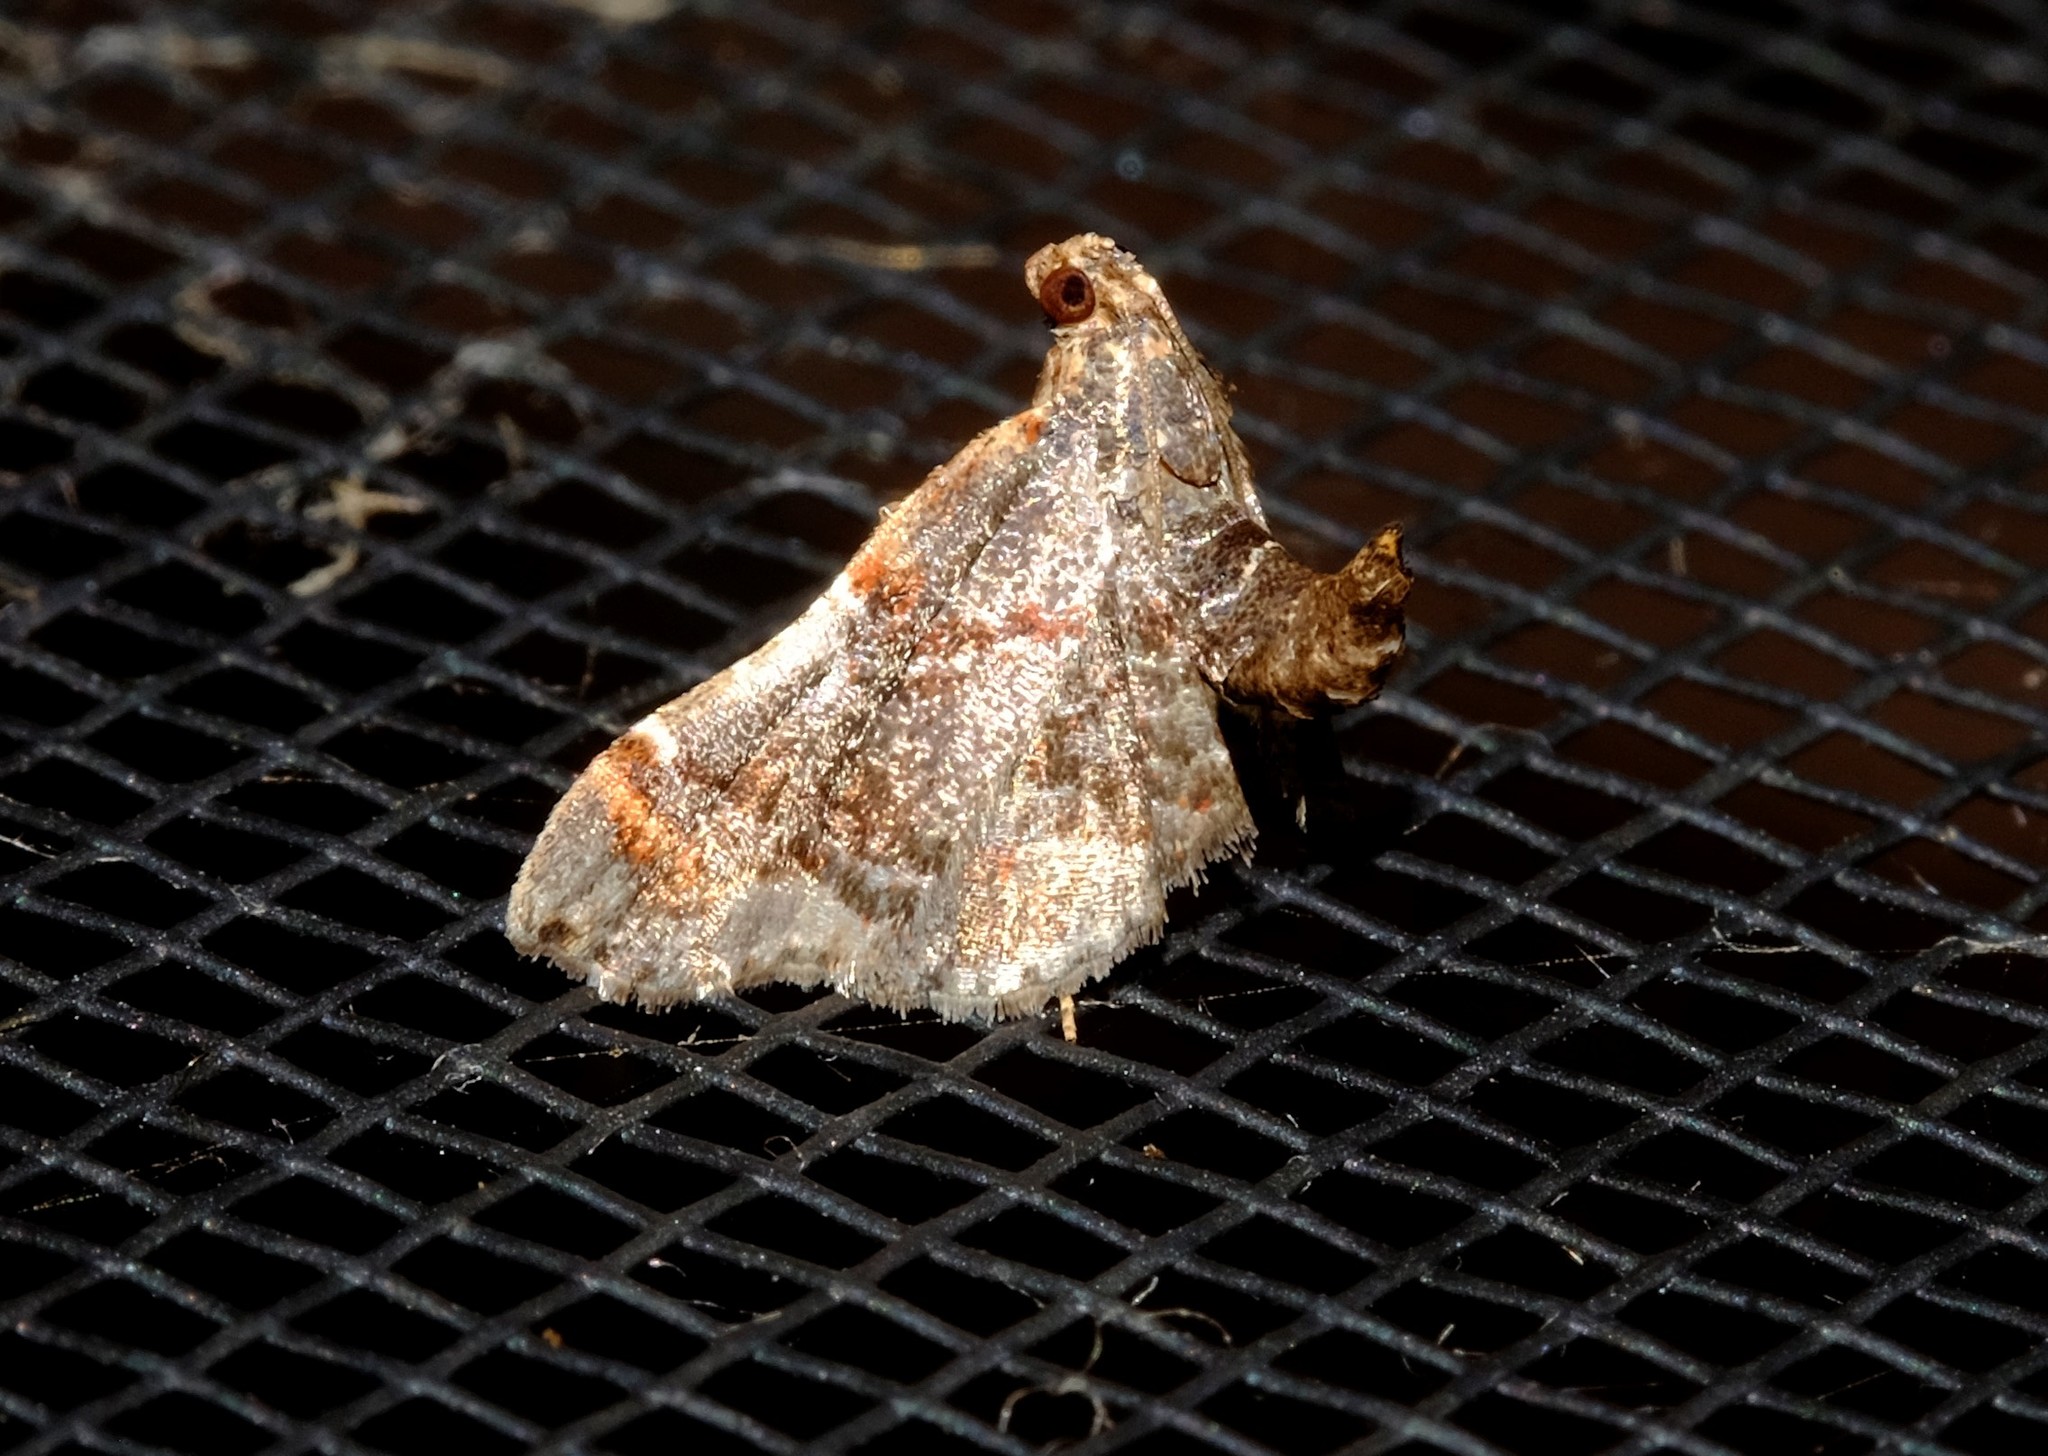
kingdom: Animalia
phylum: Arthropoda
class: Insecta
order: Lepidoptera
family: Pyralidae
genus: Scenedra
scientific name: Scenedra decoratalis
